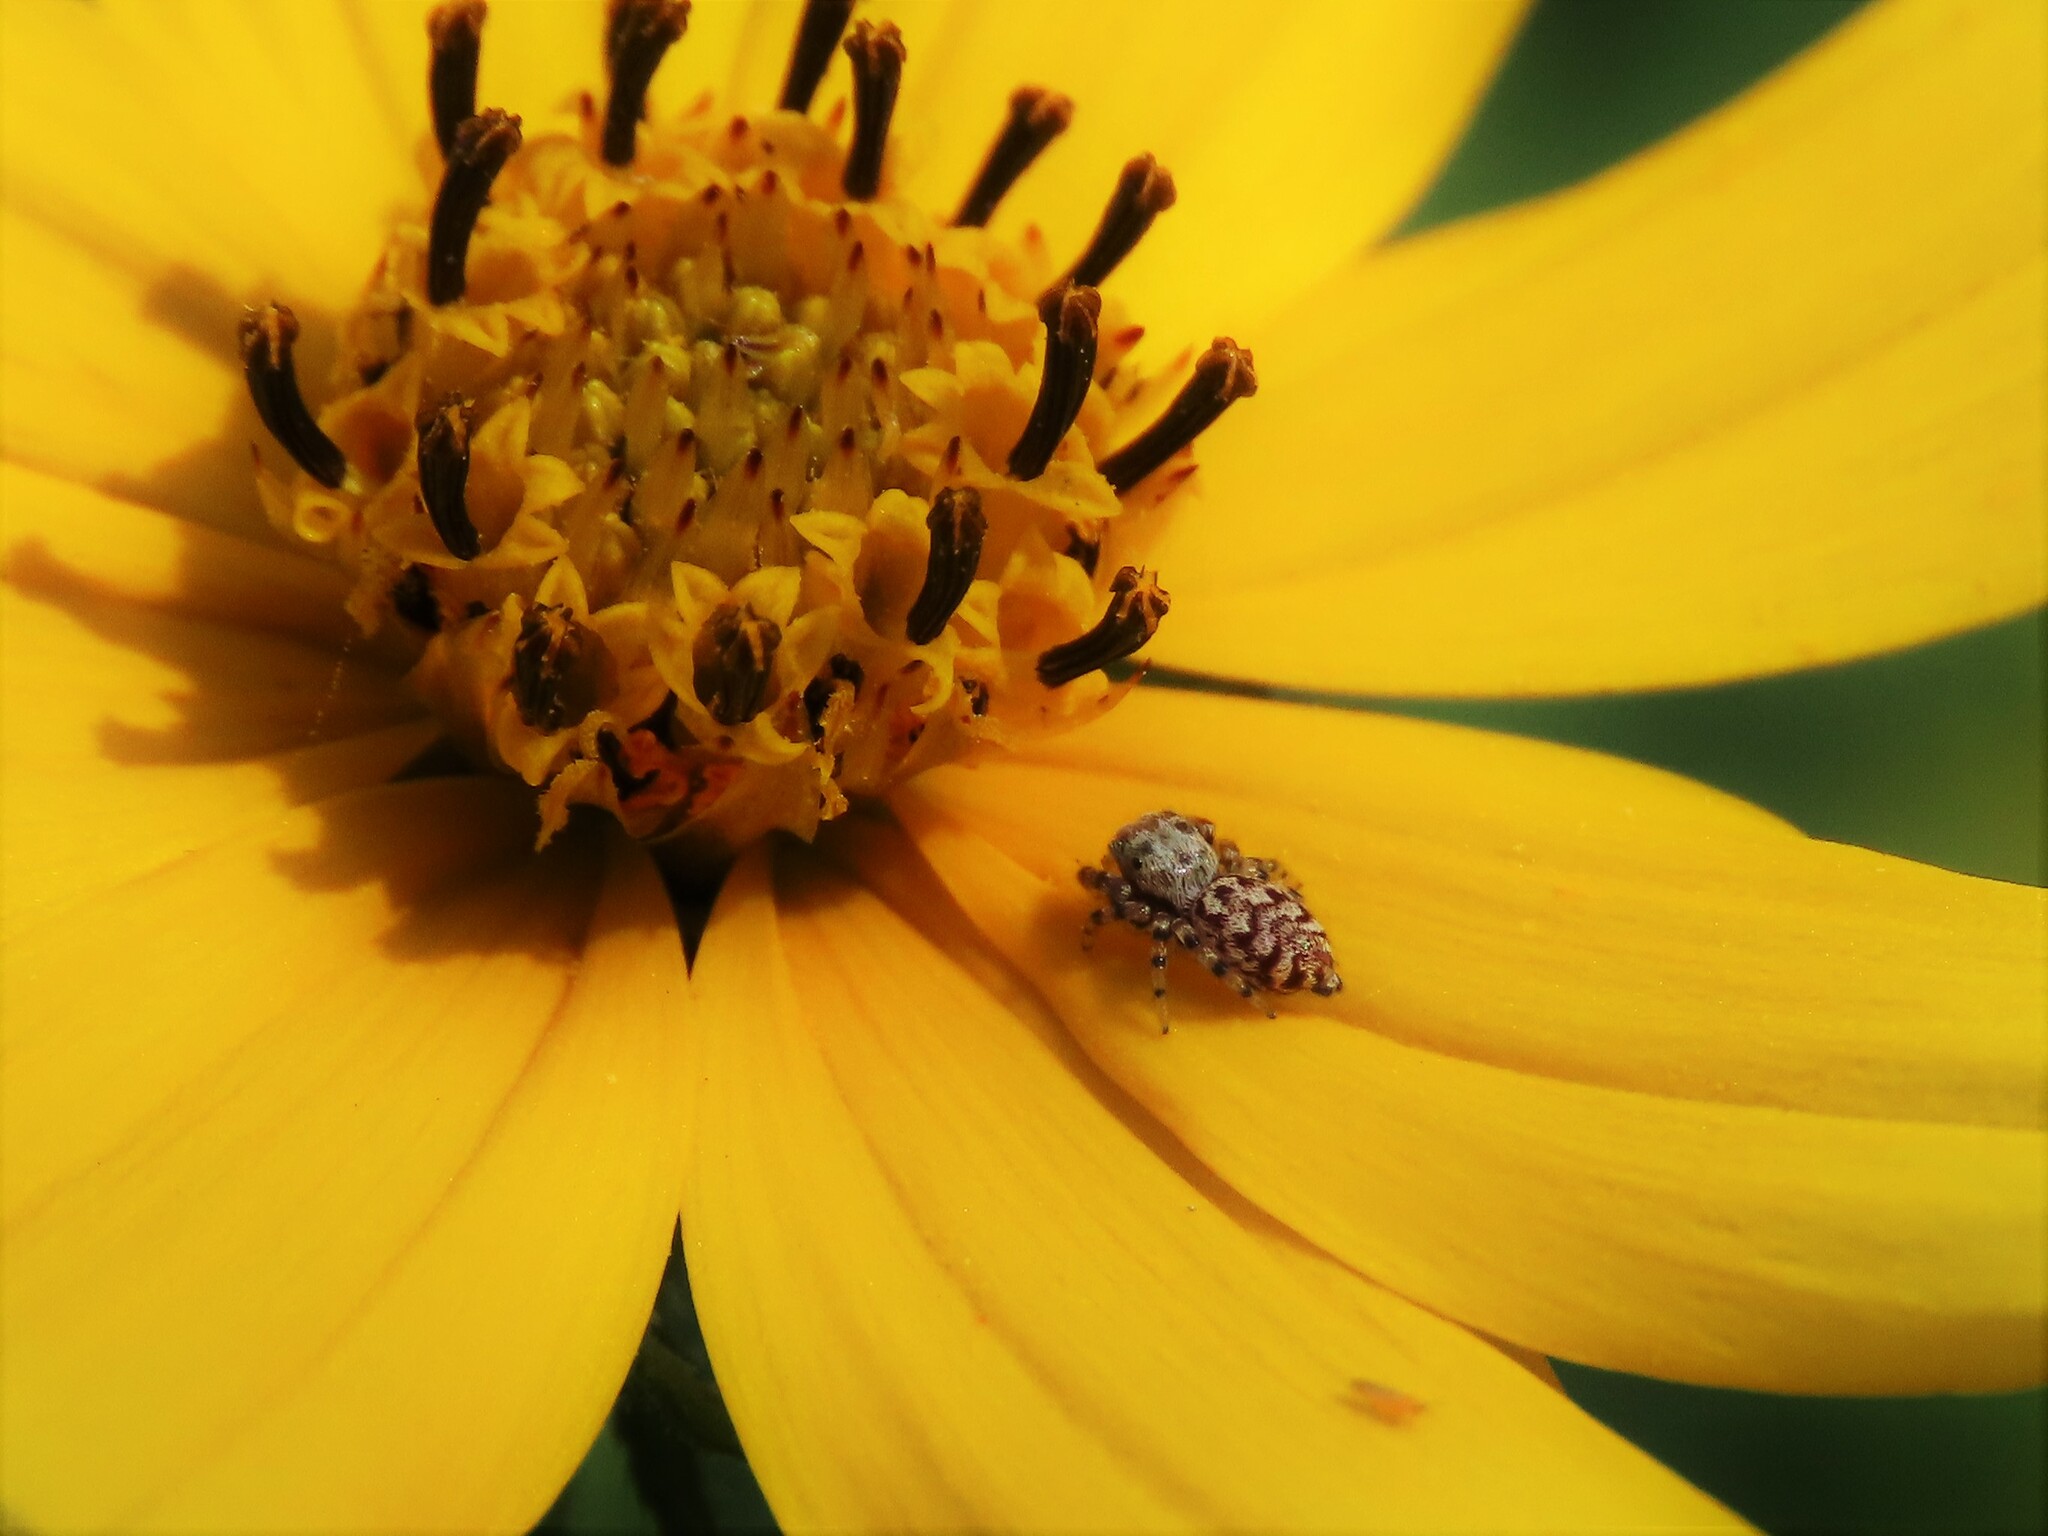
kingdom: Animalia
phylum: Arthropoda
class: Arachnida
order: Araneae
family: Salticidae
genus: Pelegrina
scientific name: Pelegrina galathea
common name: Jumping spiders
